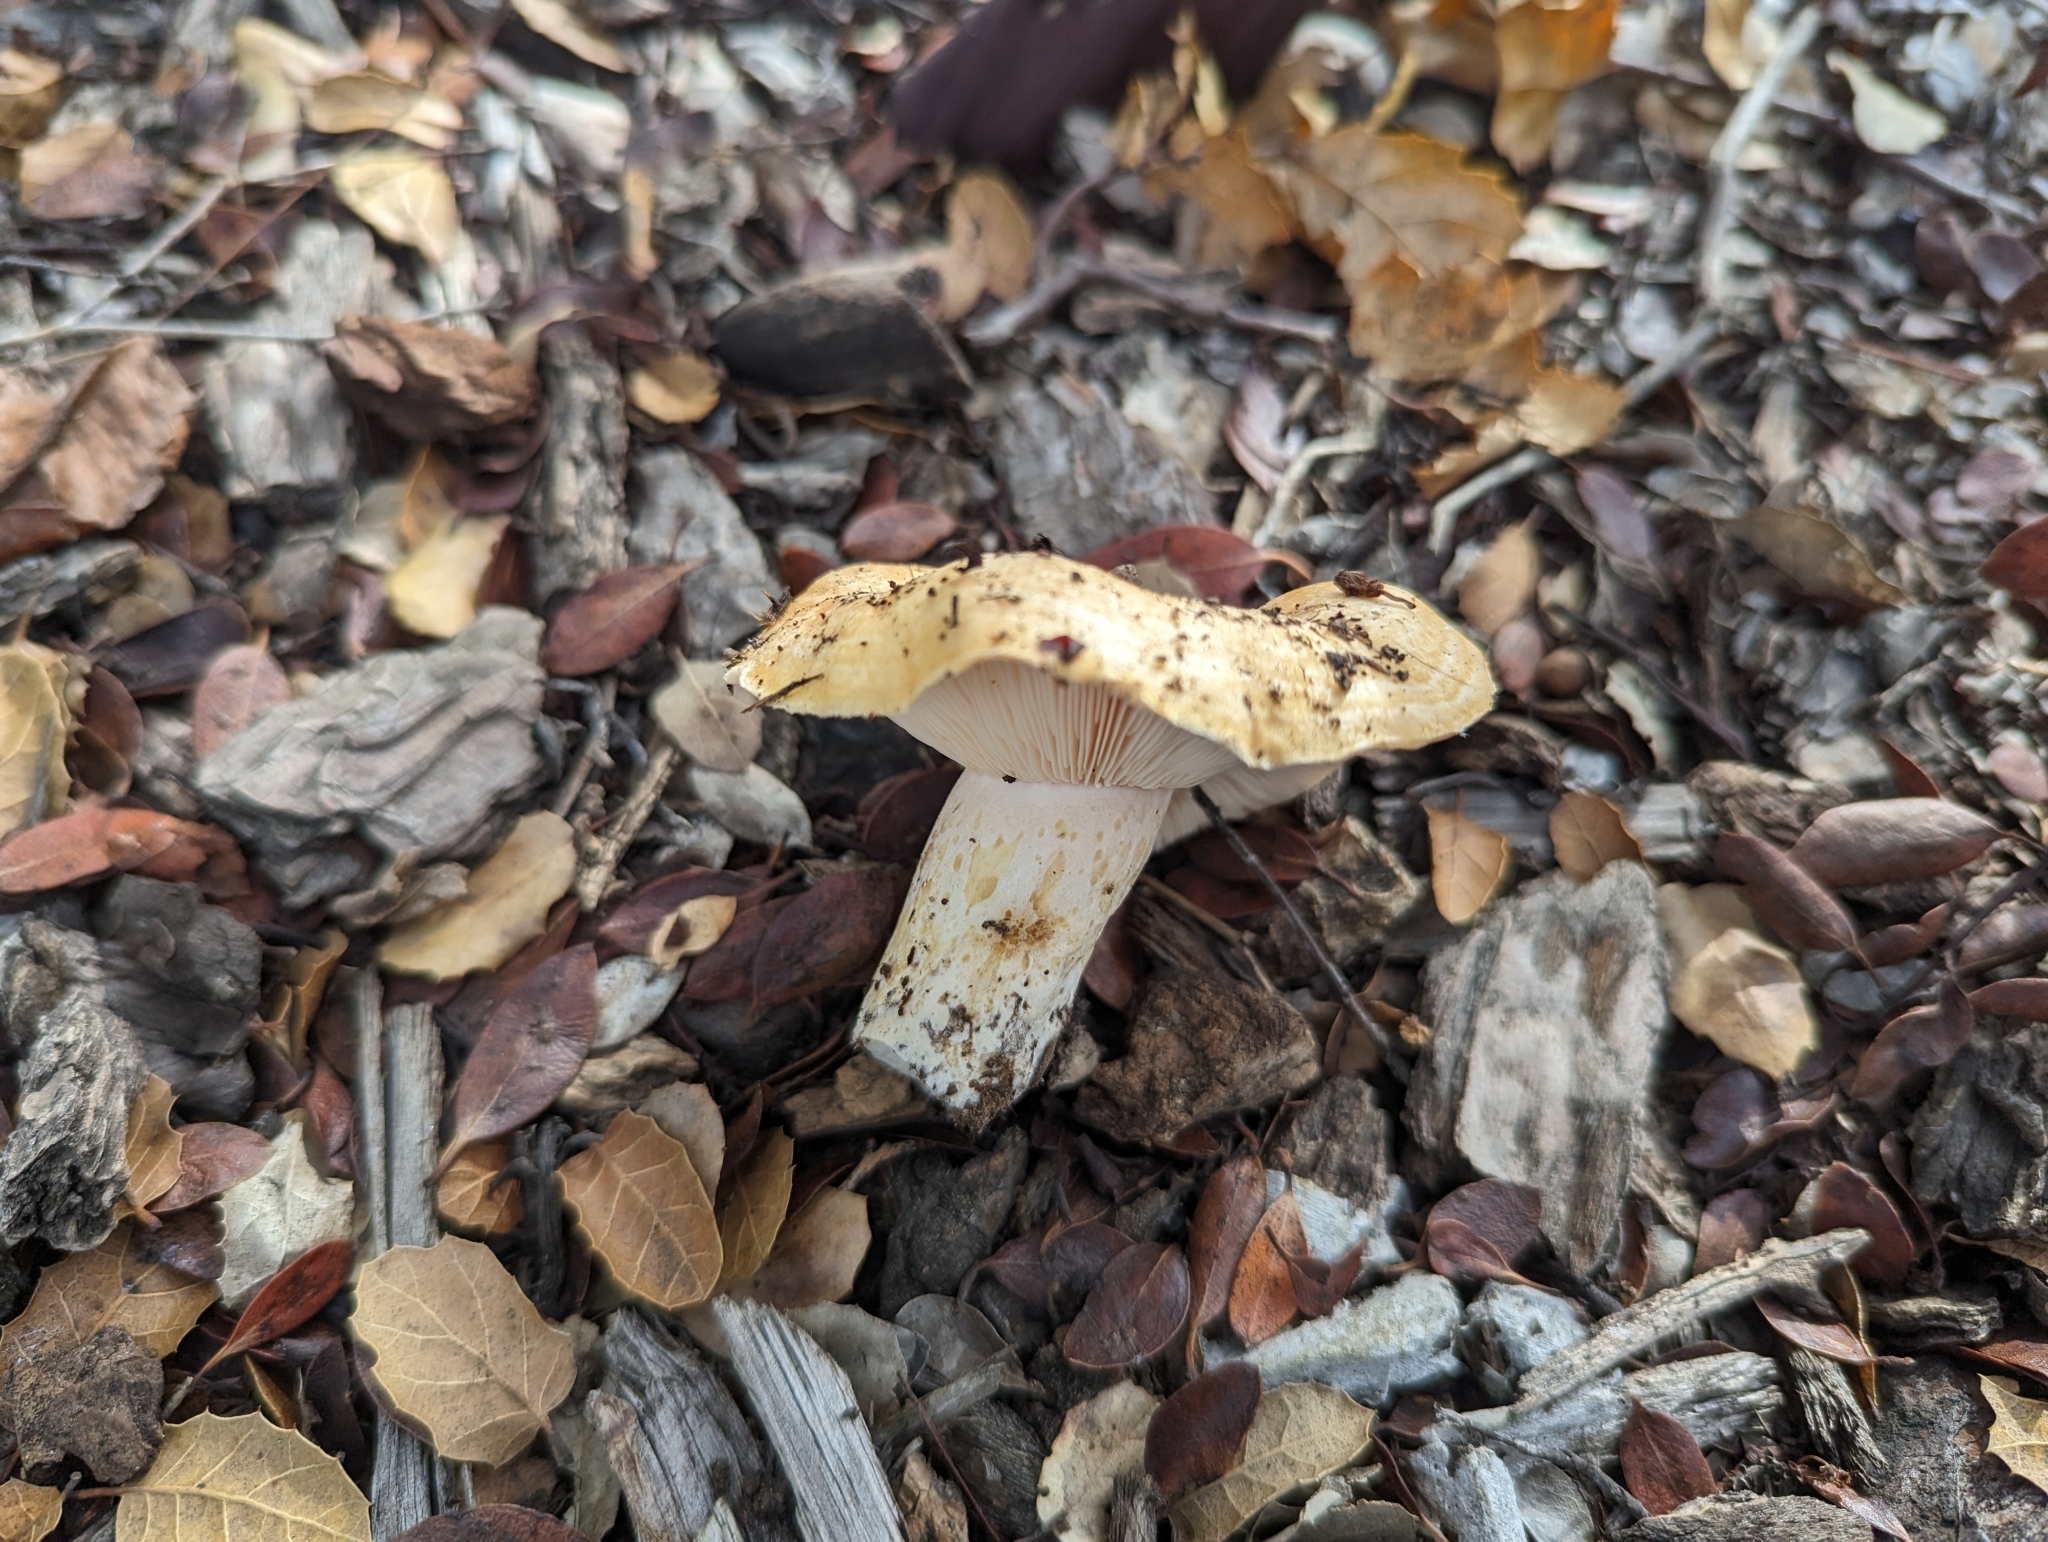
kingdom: Fungi
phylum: Basidiomycota
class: Agaricomycetes
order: Russulales
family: Russulaceae
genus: Lactarius
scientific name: Lactarius alnicola
